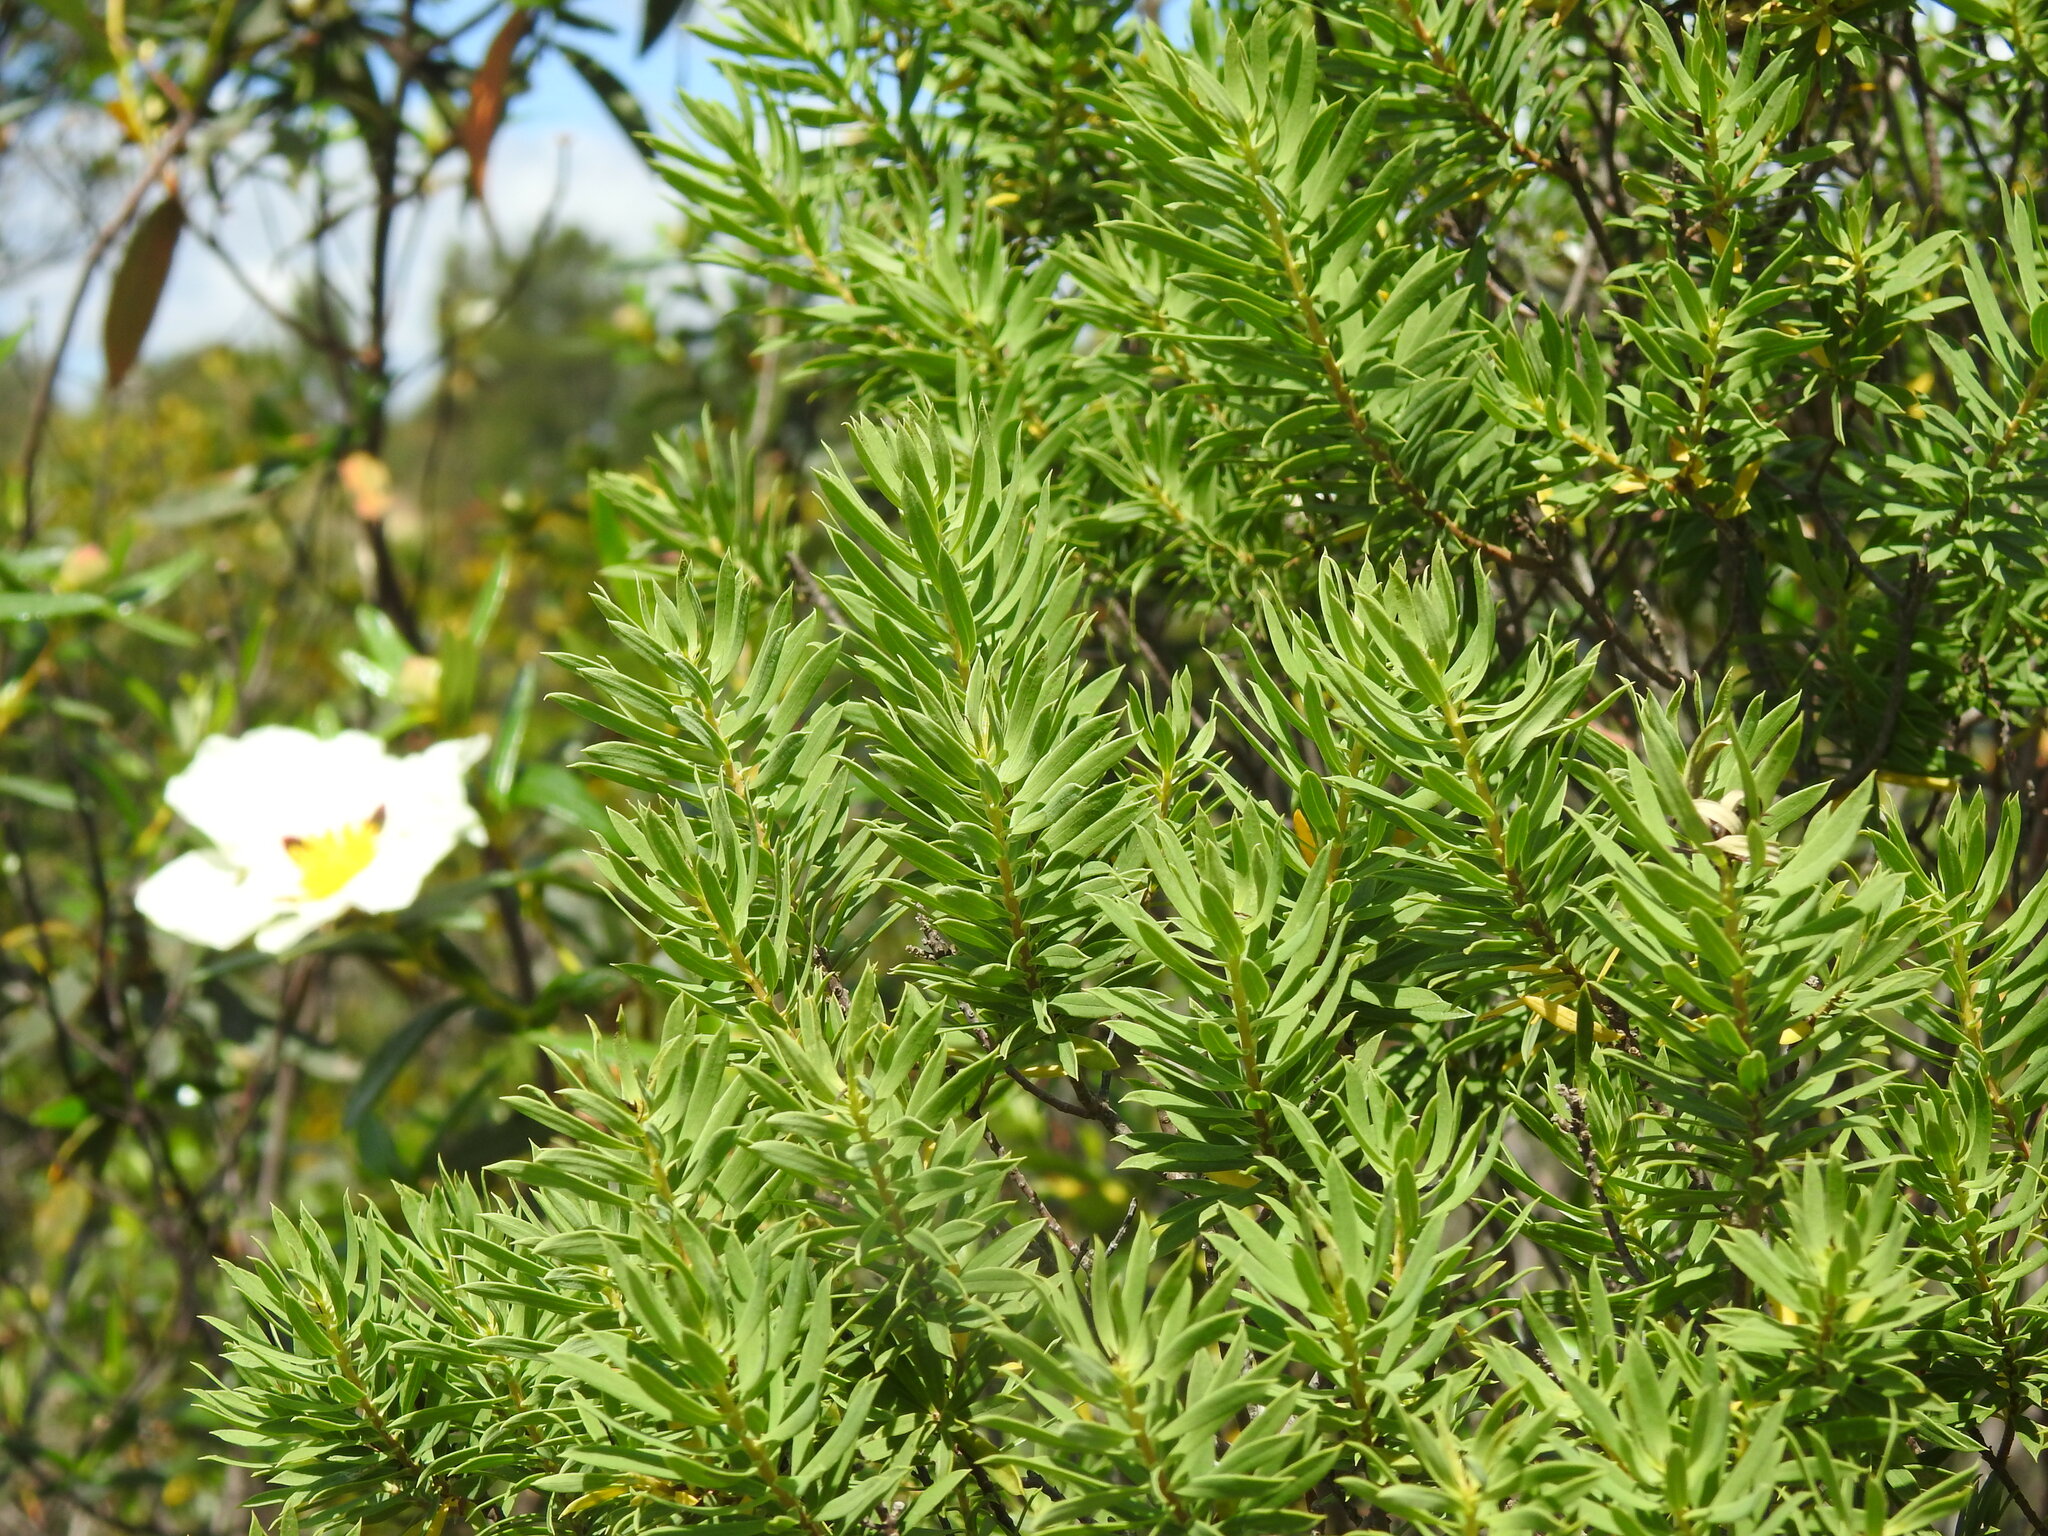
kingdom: Plantae
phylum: Tracheophyta
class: Magnoliopsida
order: Malvales
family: Thymelaeaceae
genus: Daphne
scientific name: Daphne gnidium
